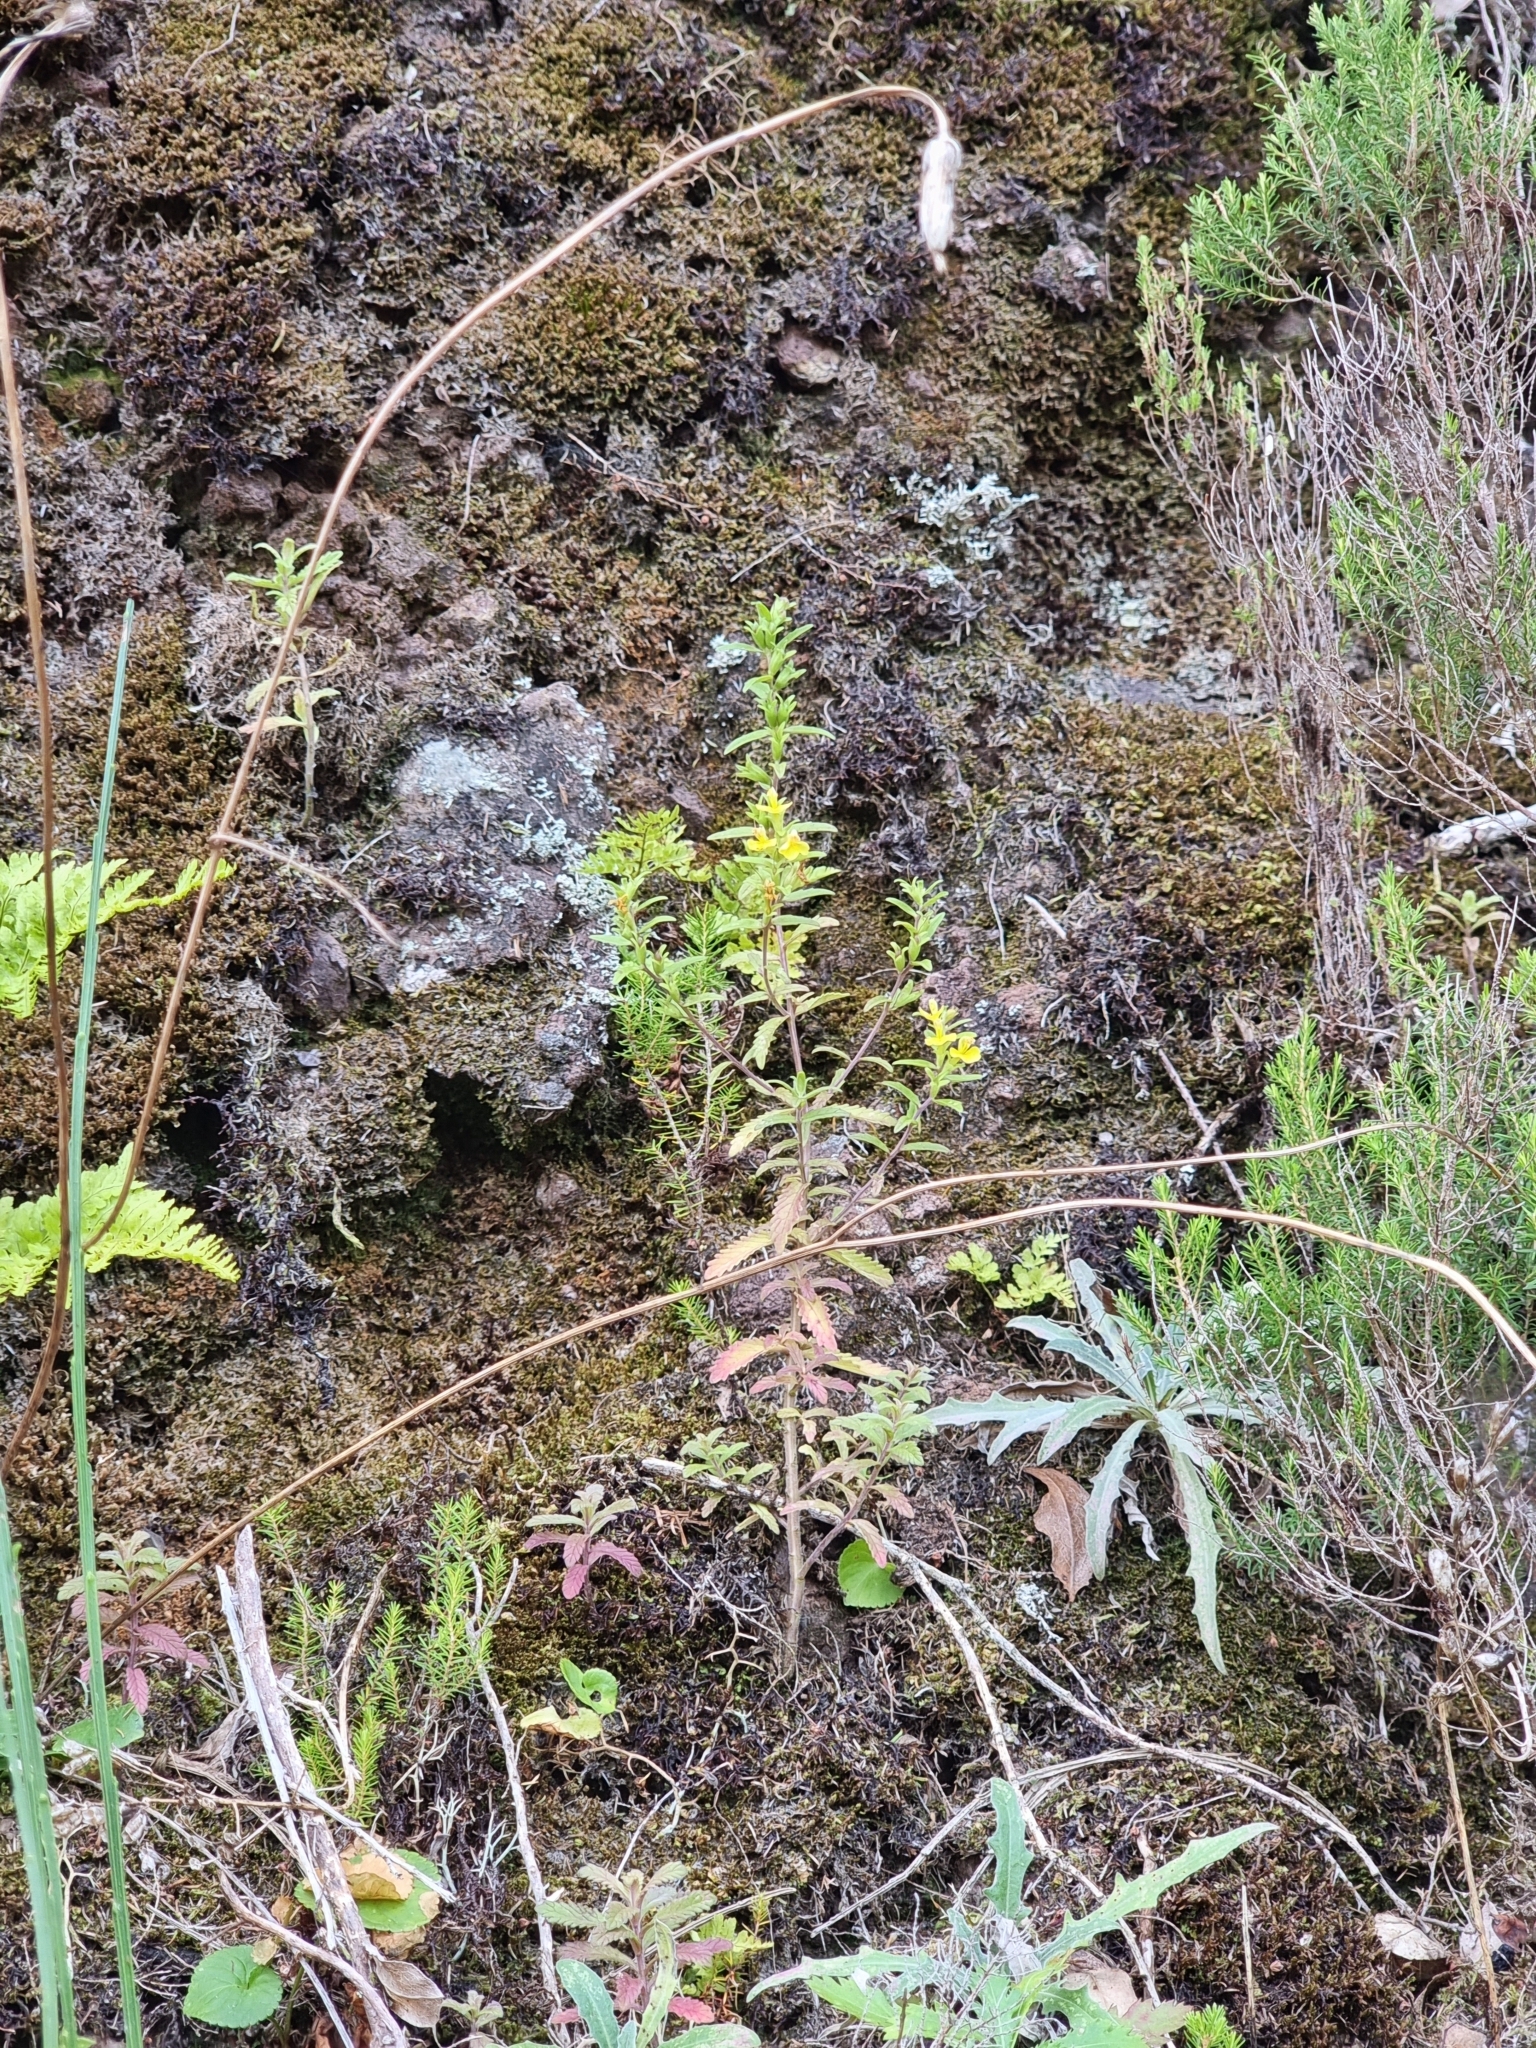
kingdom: Plantae
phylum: Tracheophyta
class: Magnoliopsida
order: Lamiales
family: Orobanchaceae
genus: Odontites
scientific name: Odontites hollianus
